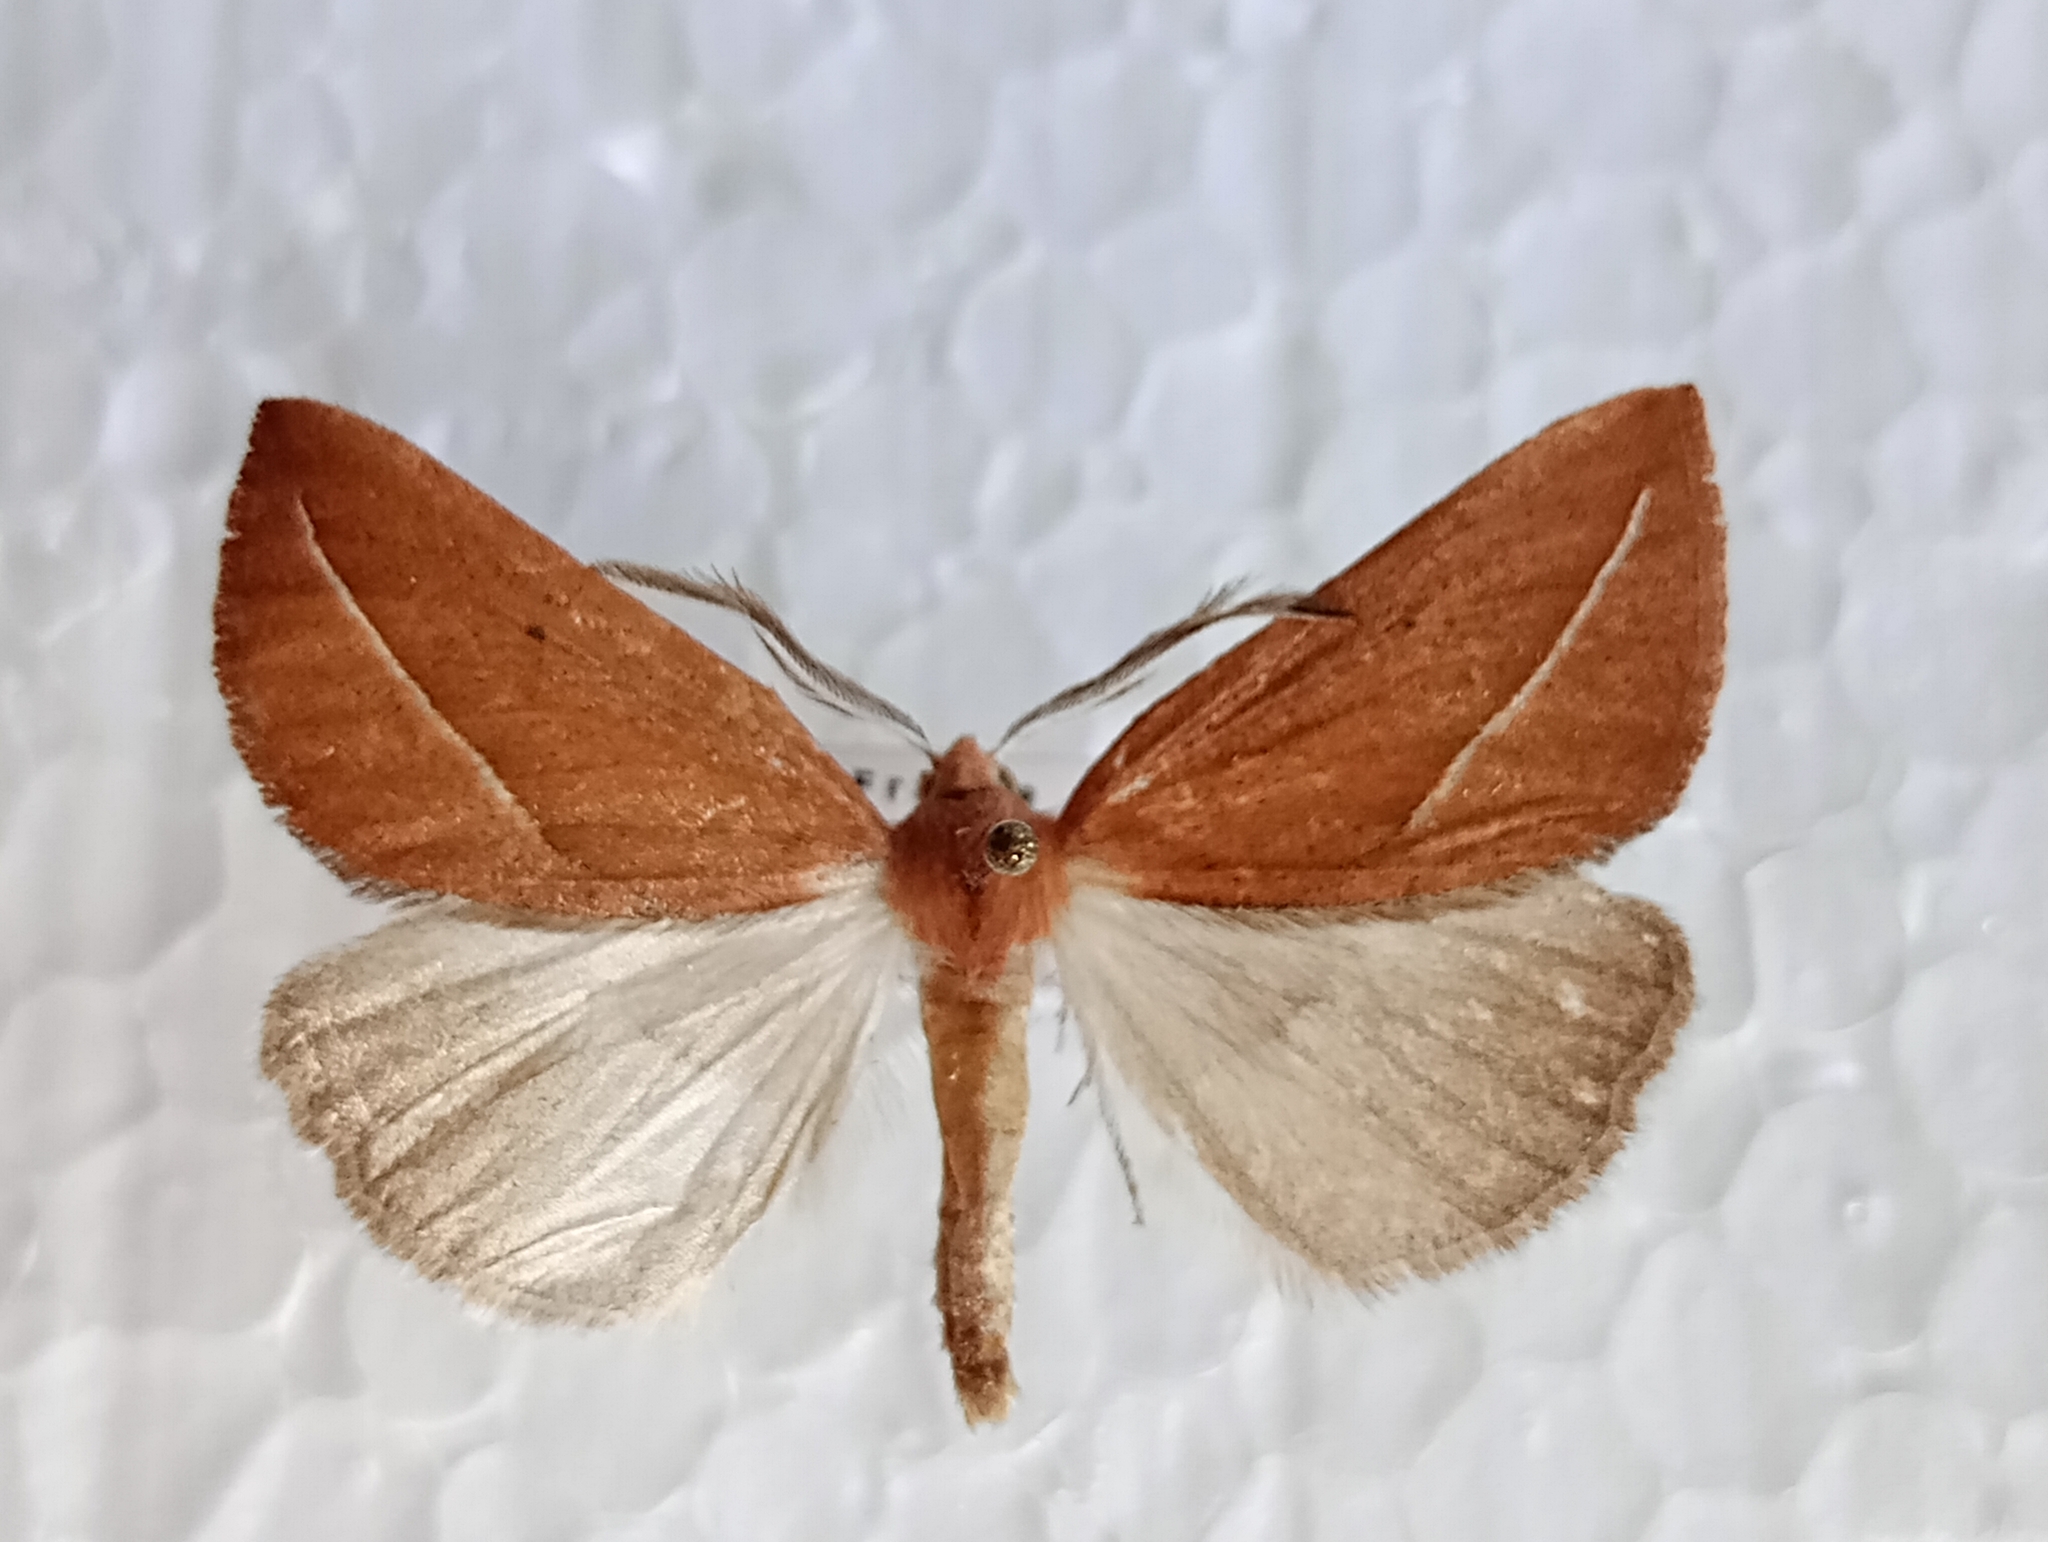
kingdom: Animalia
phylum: Arthropoda
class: Insecta
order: Lepidoptera
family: Geometridae
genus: Compsoptera
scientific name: Compsoptera opacaria
